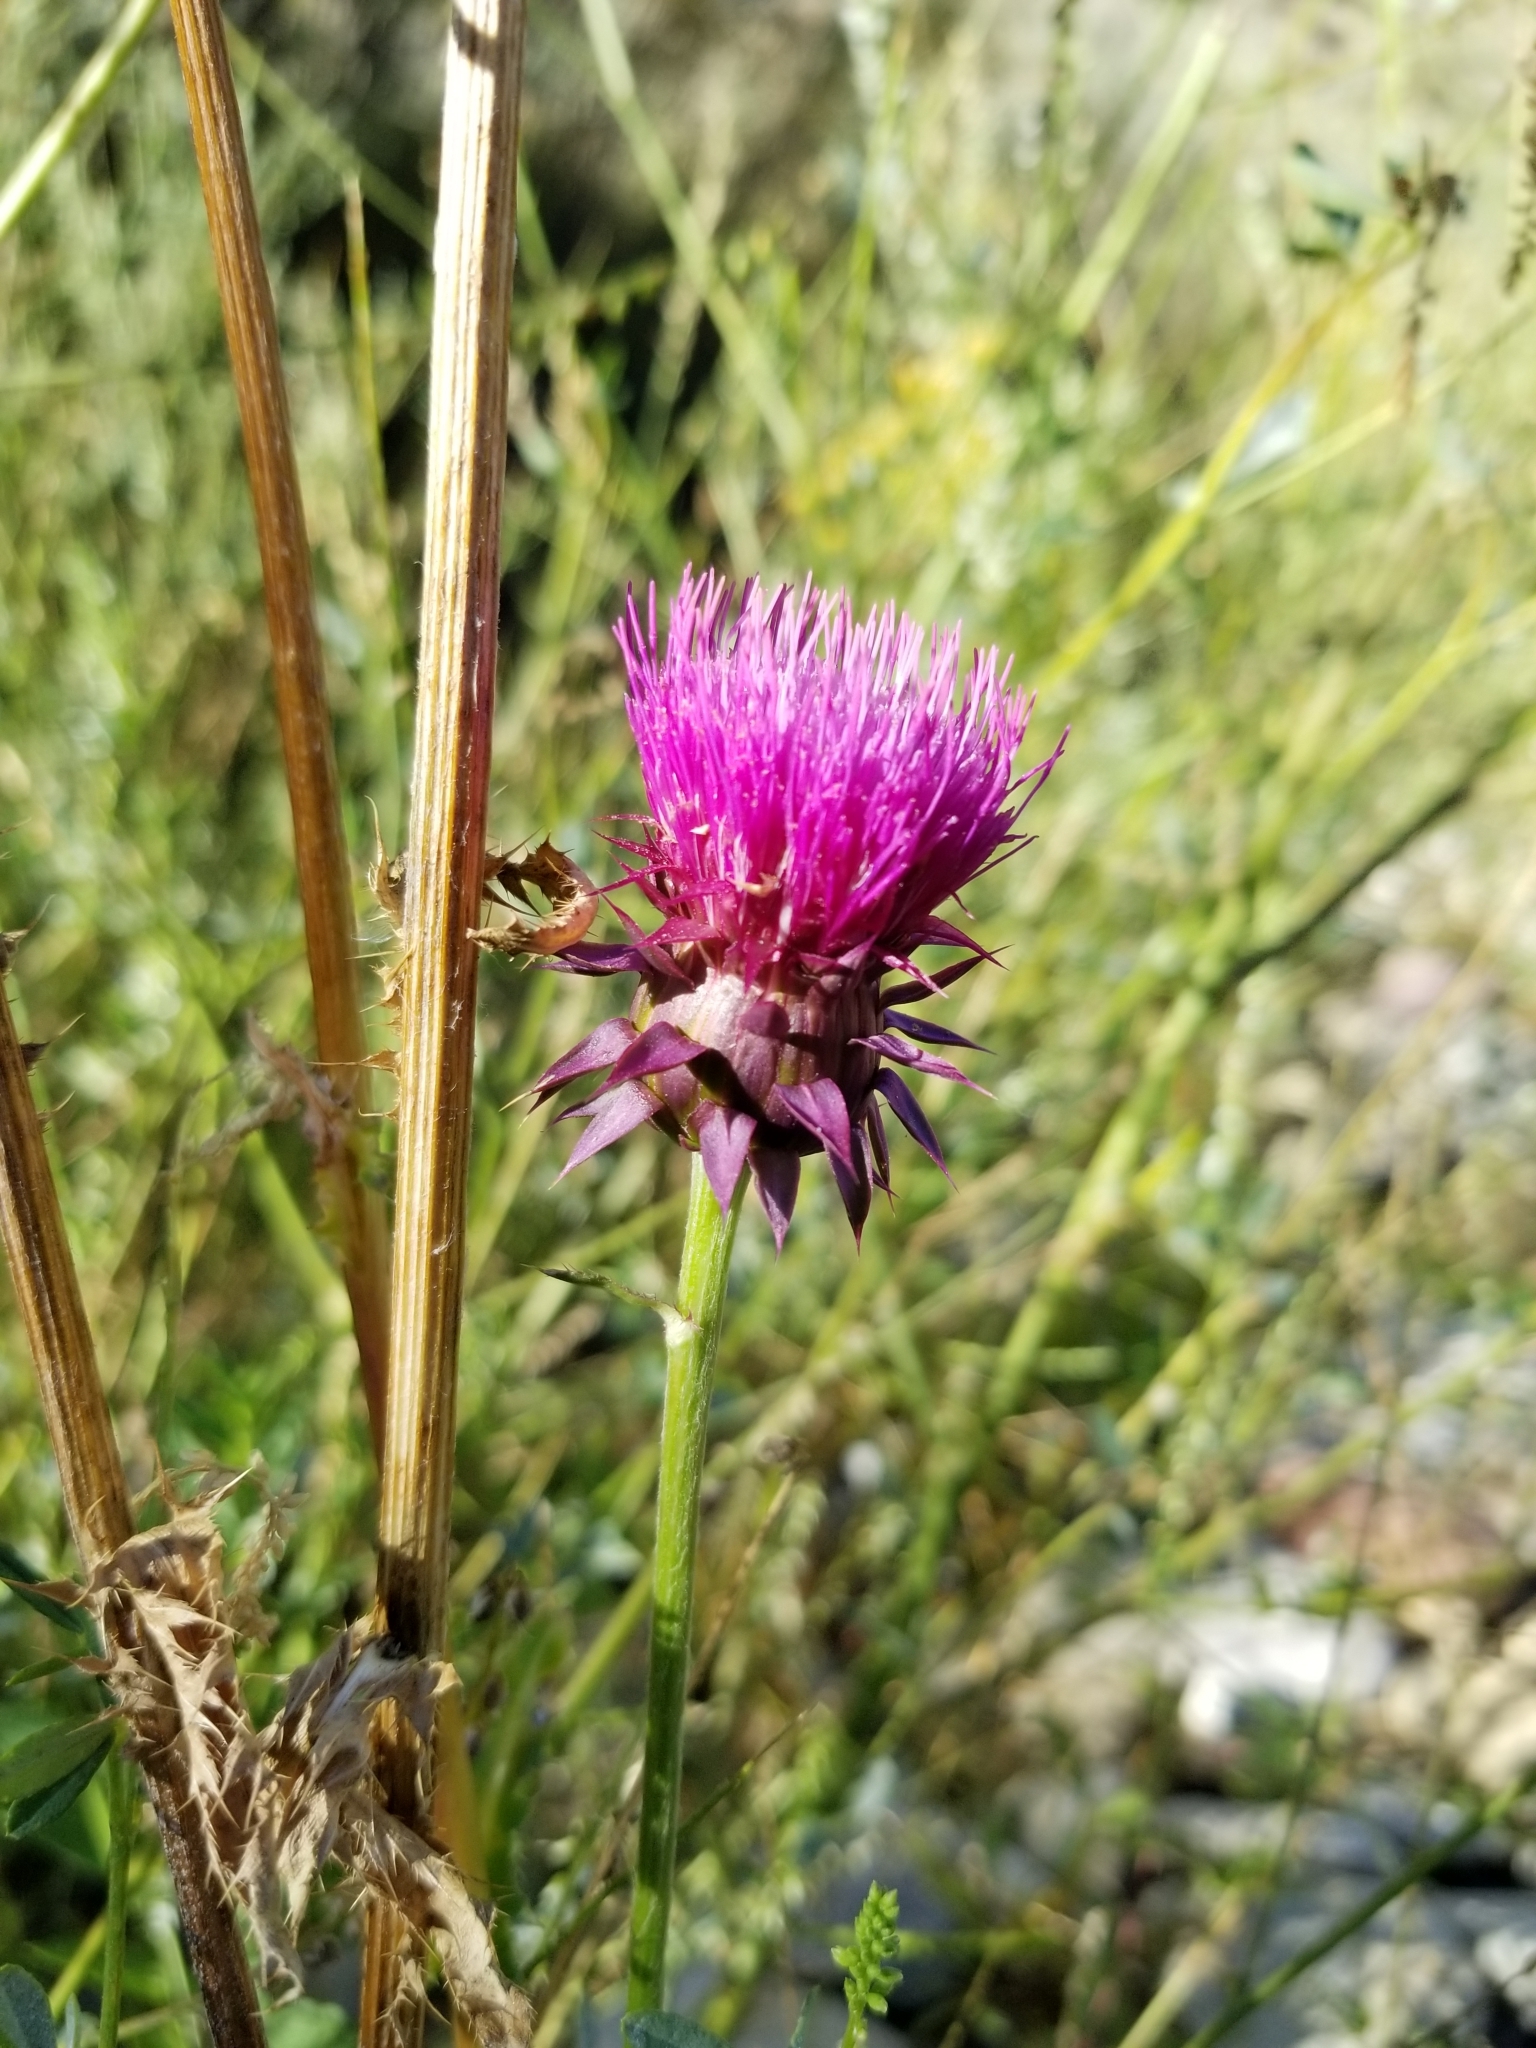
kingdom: Plantae
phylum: Tracheophyta
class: Magnoliopsida
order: Asterales
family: Asteraceae
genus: Carduus
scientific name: Carduus nutans
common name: Musk thistle
